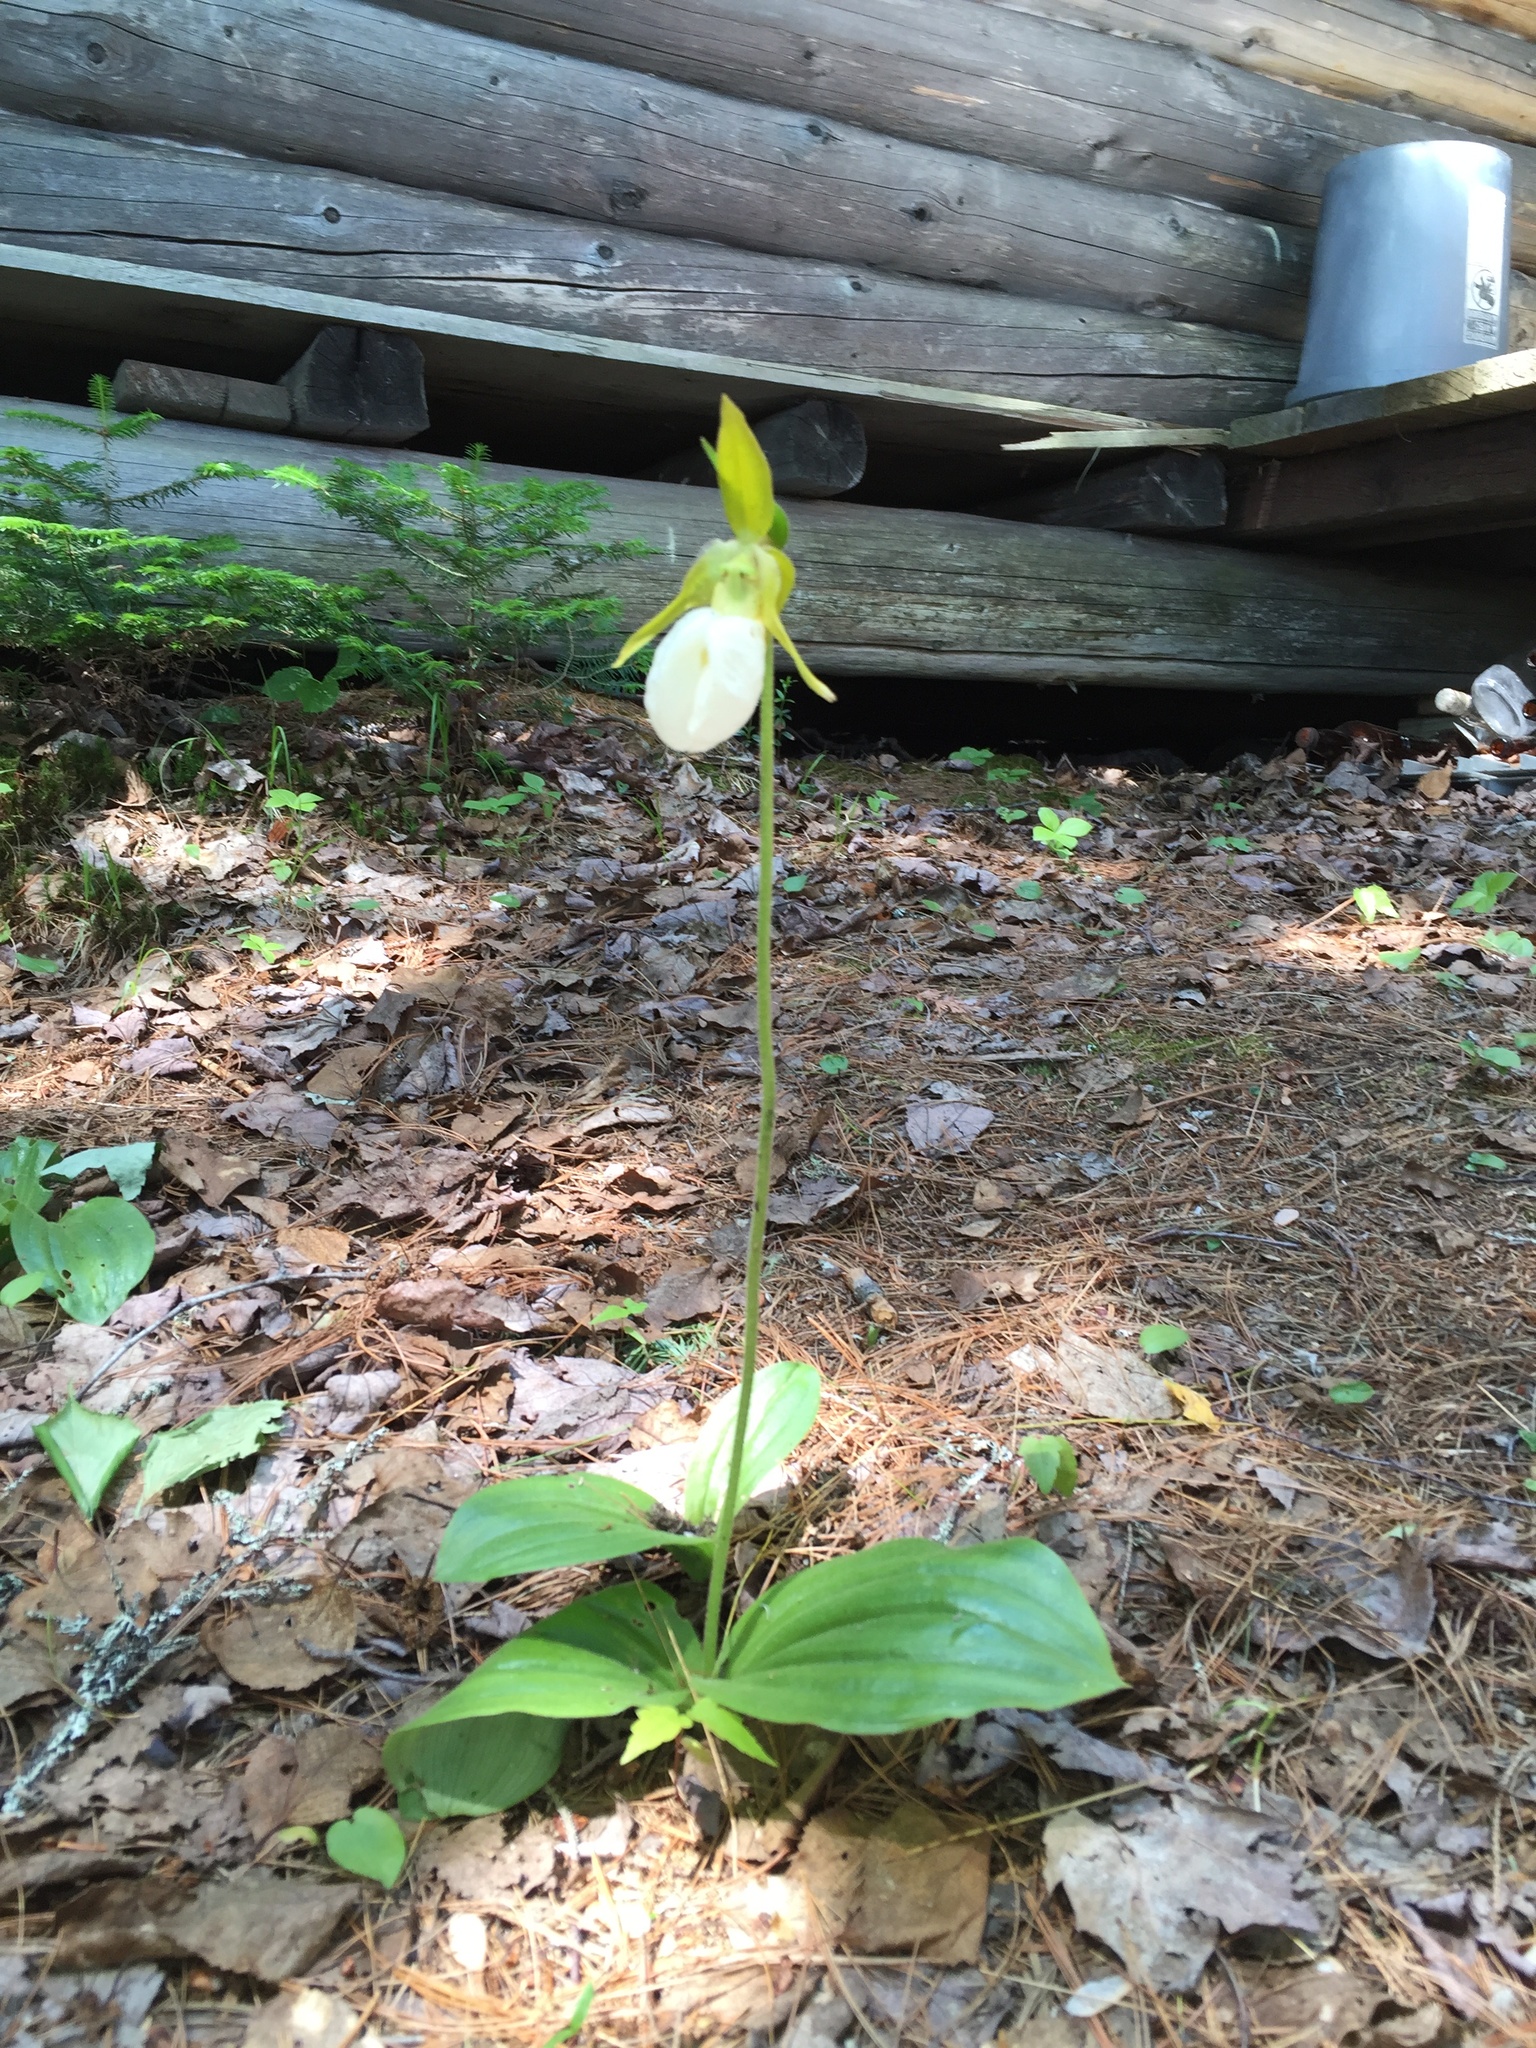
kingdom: Plantae
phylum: Tracheophyta
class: Liliopsida
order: Asparagales
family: Orchidaceae
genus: Cypripedium
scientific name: Cypripedium acaule
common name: Pink lady's-slipper
